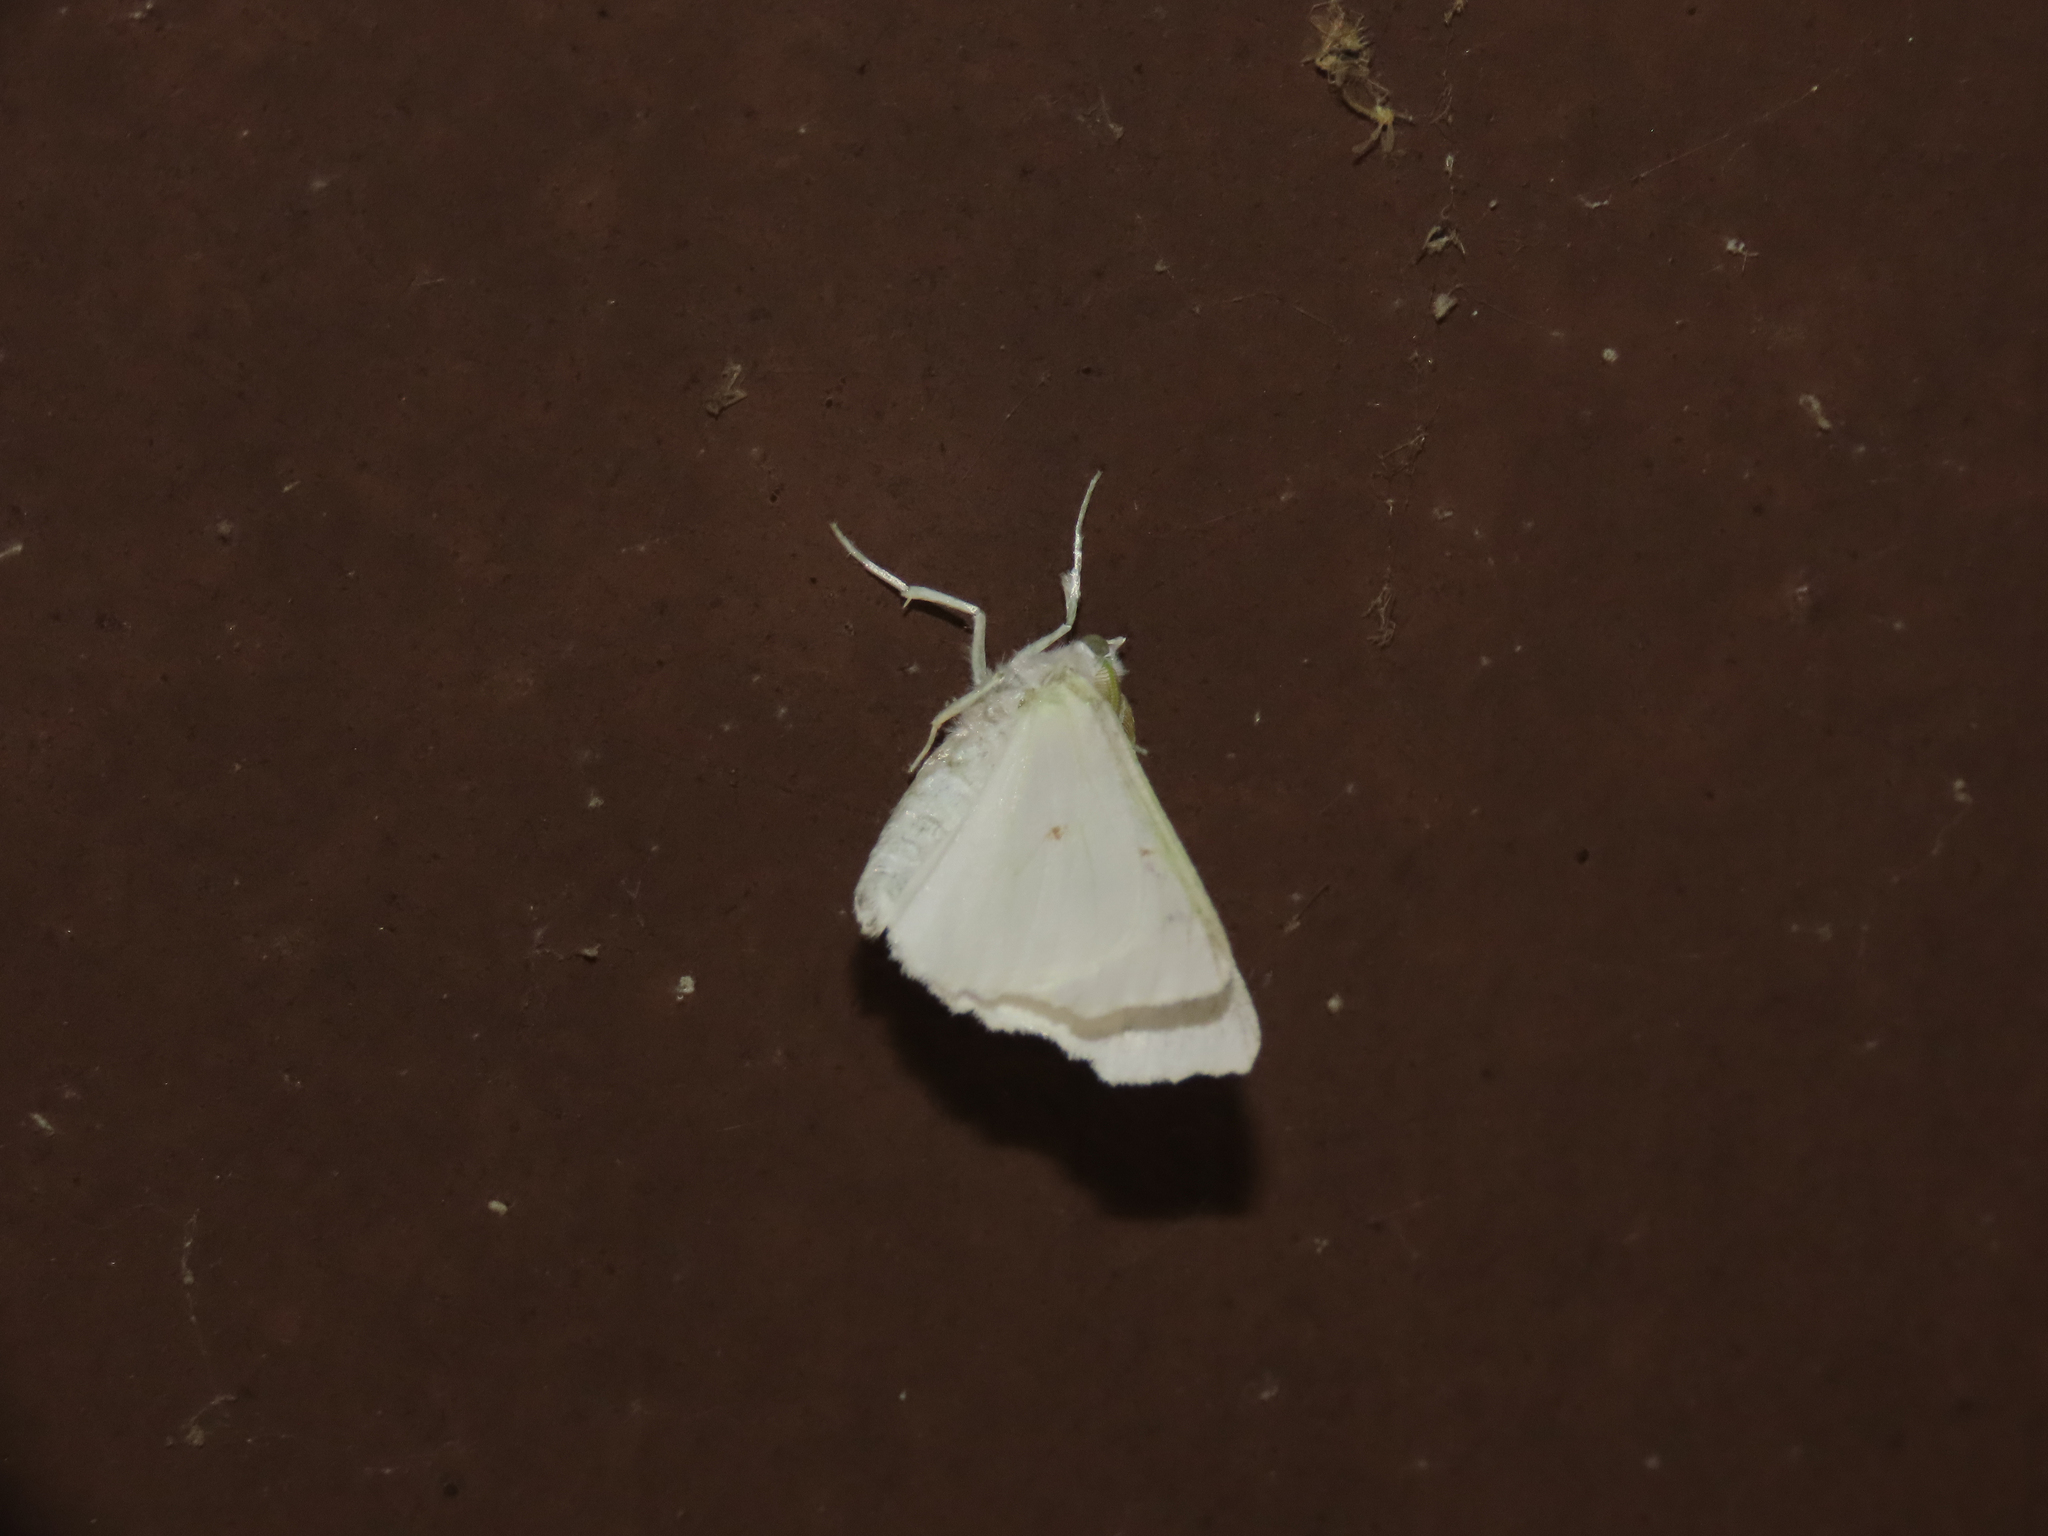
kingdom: Animalia
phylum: Arthropoda
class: Insecta
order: Lepidoptera
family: Geometridae
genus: Ennomos
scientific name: Ennomos subsignaria
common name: Elm spanworm
